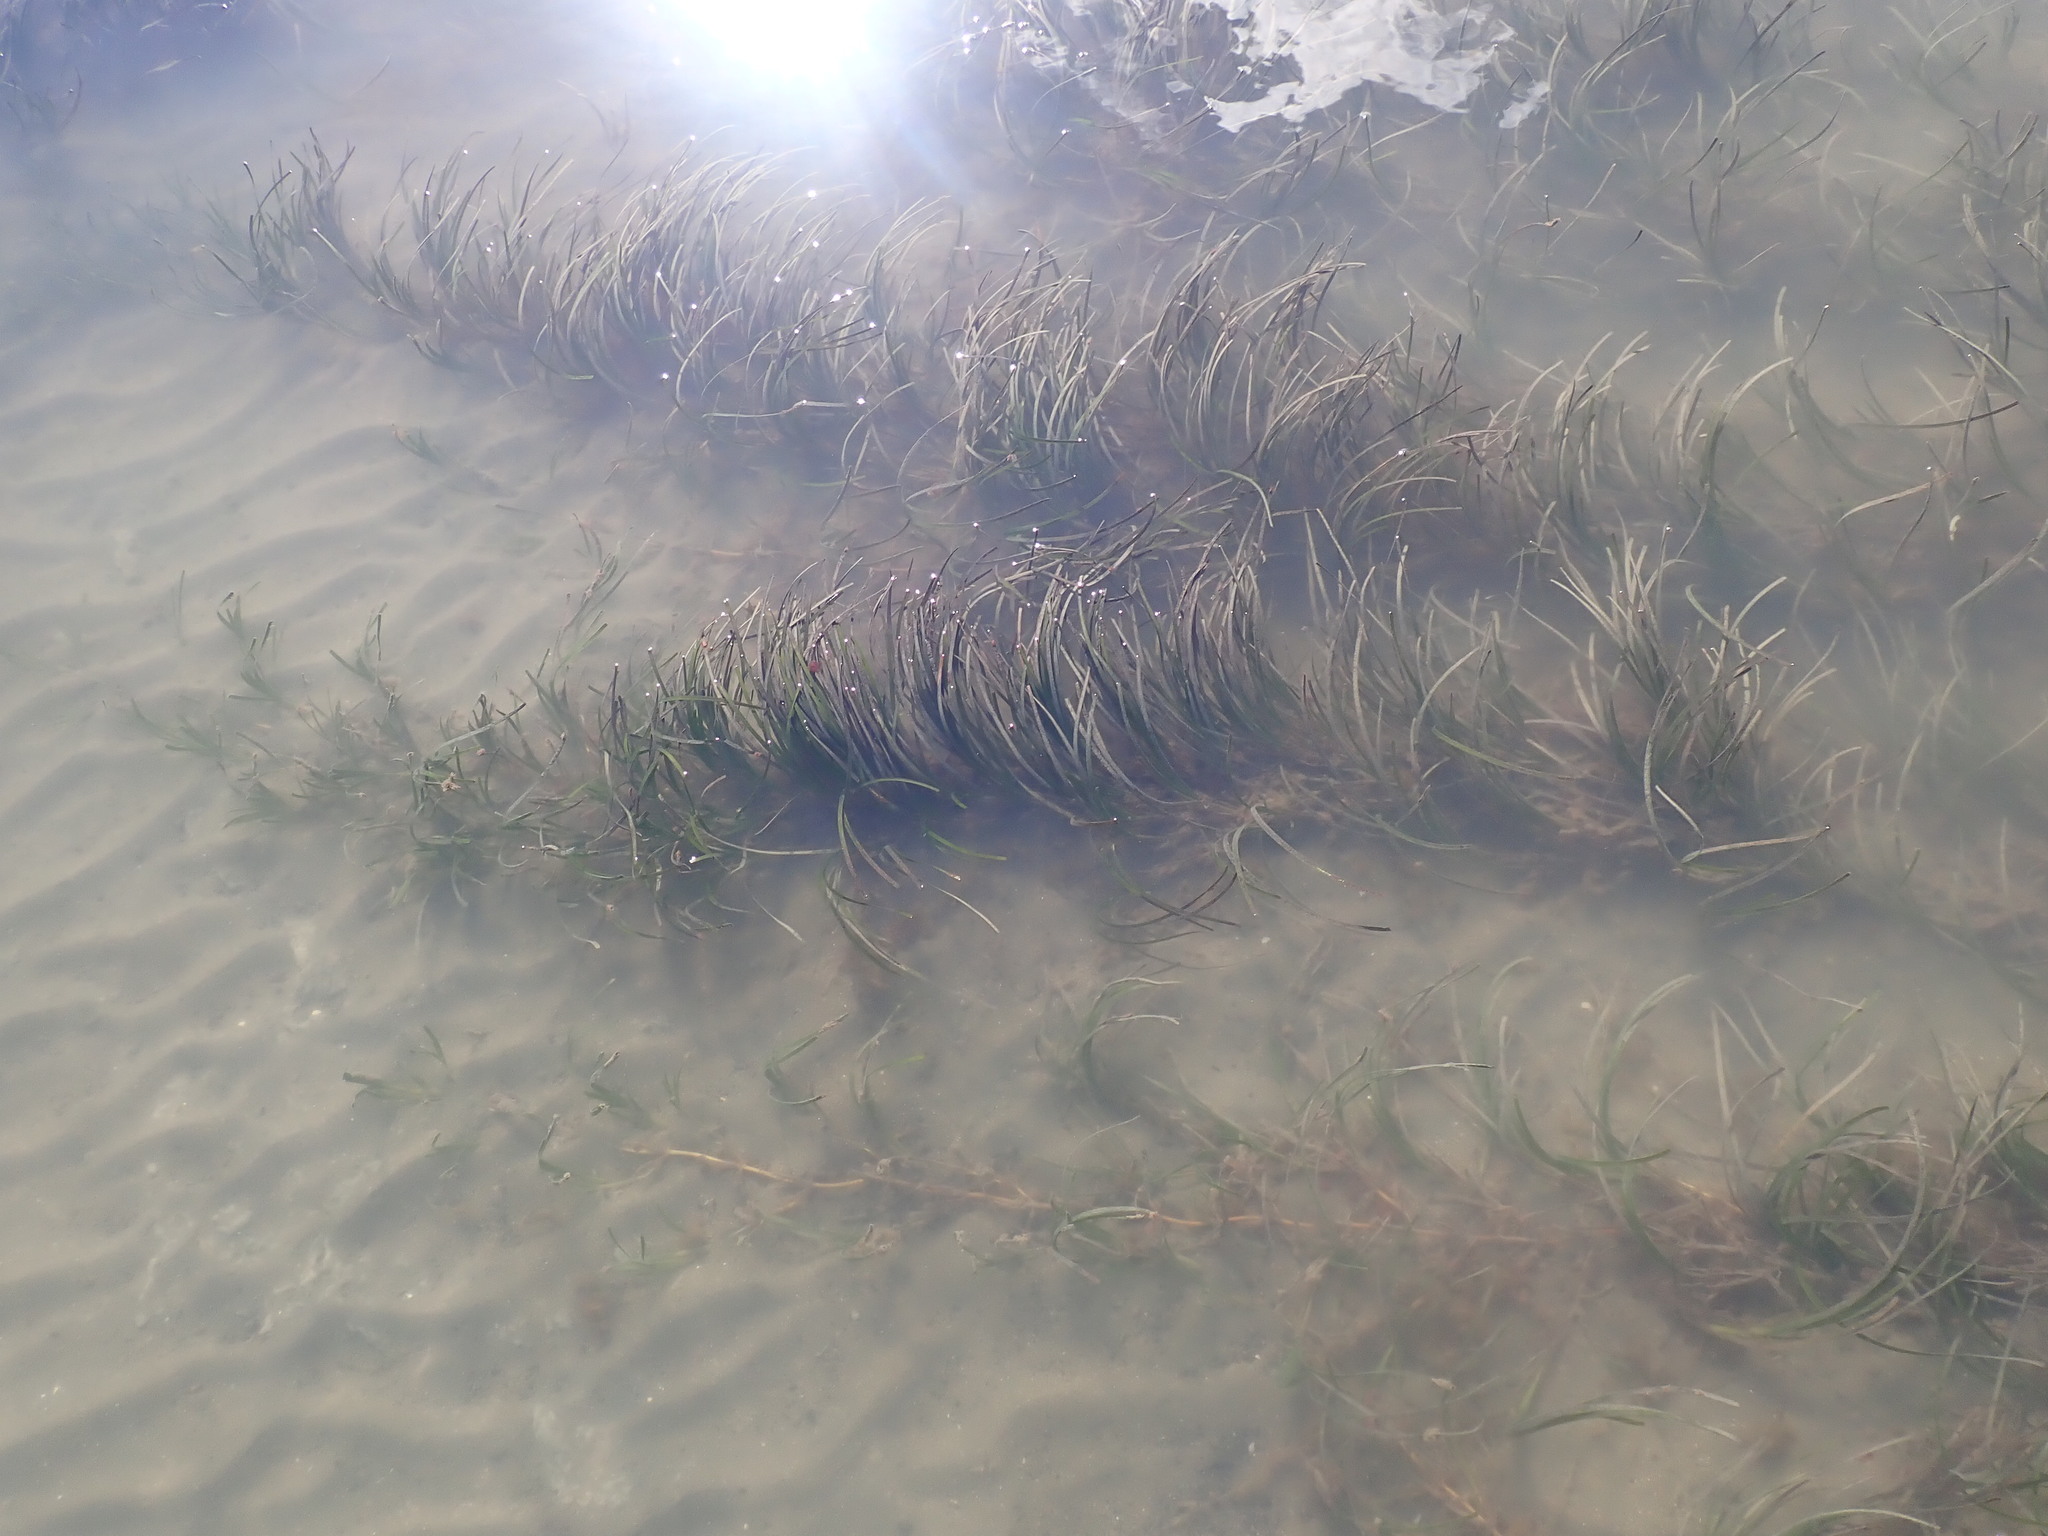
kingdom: Plantae
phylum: Tracheophyta
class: Liliopsida
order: Alismatales
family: Zosteraceae
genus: Zostera
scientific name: Zostera novazelandica
